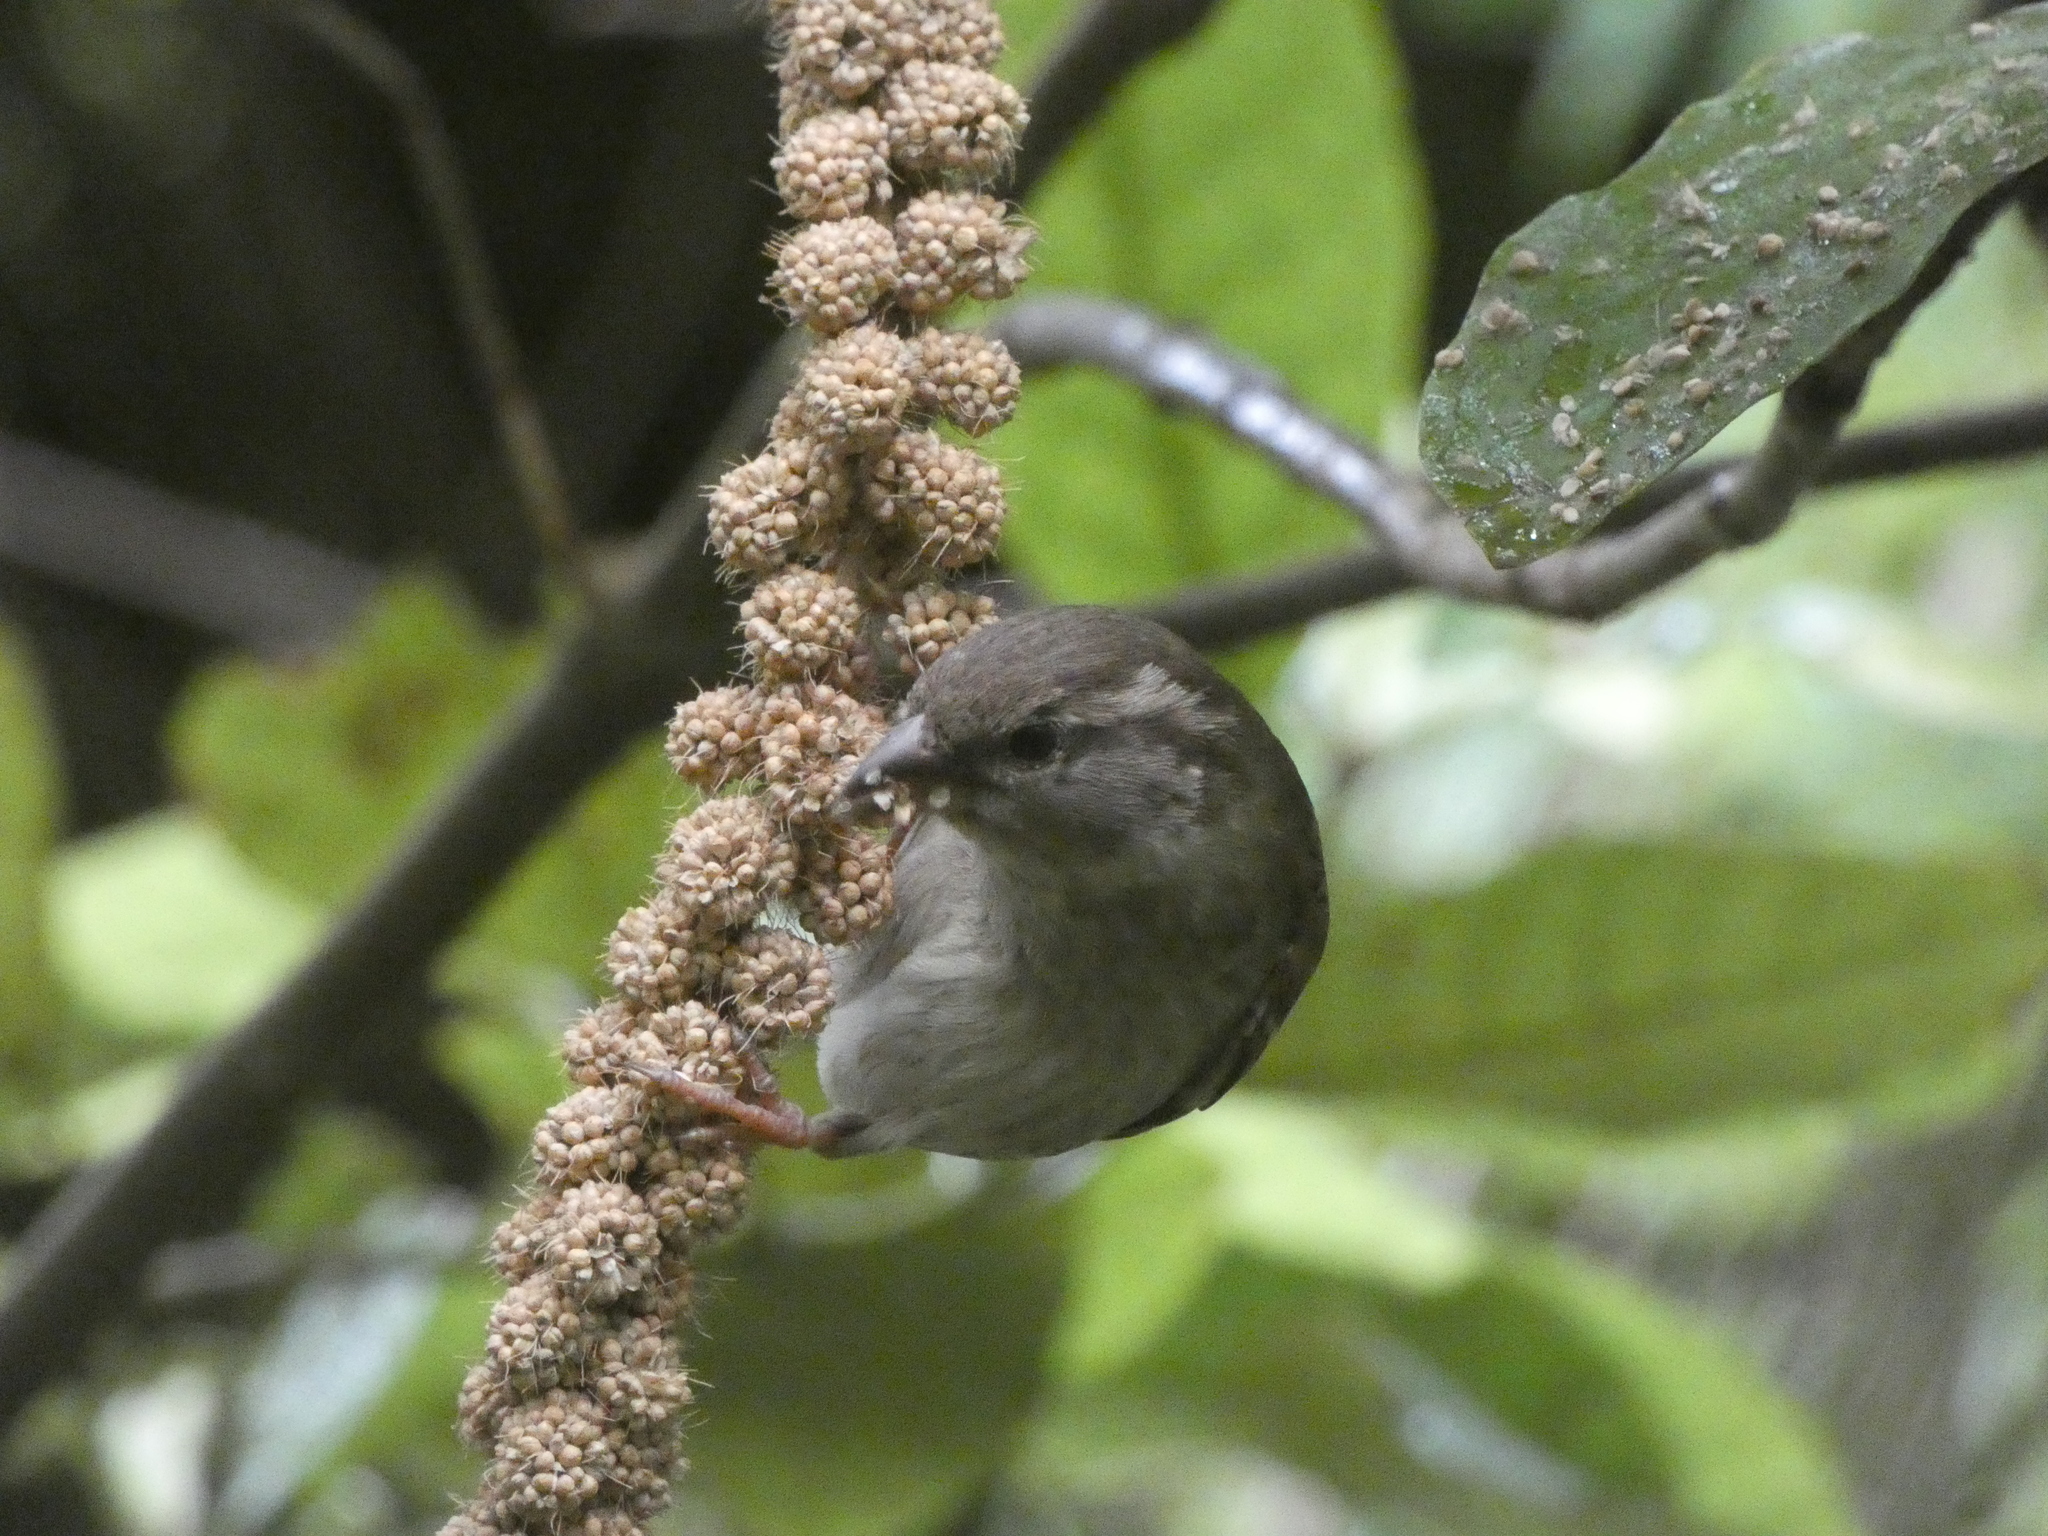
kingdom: Animalia
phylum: Chordata
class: Aves
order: Passeriformes
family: Passeridae
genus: Passer
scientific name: Passer domesticus
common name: House sparrow
